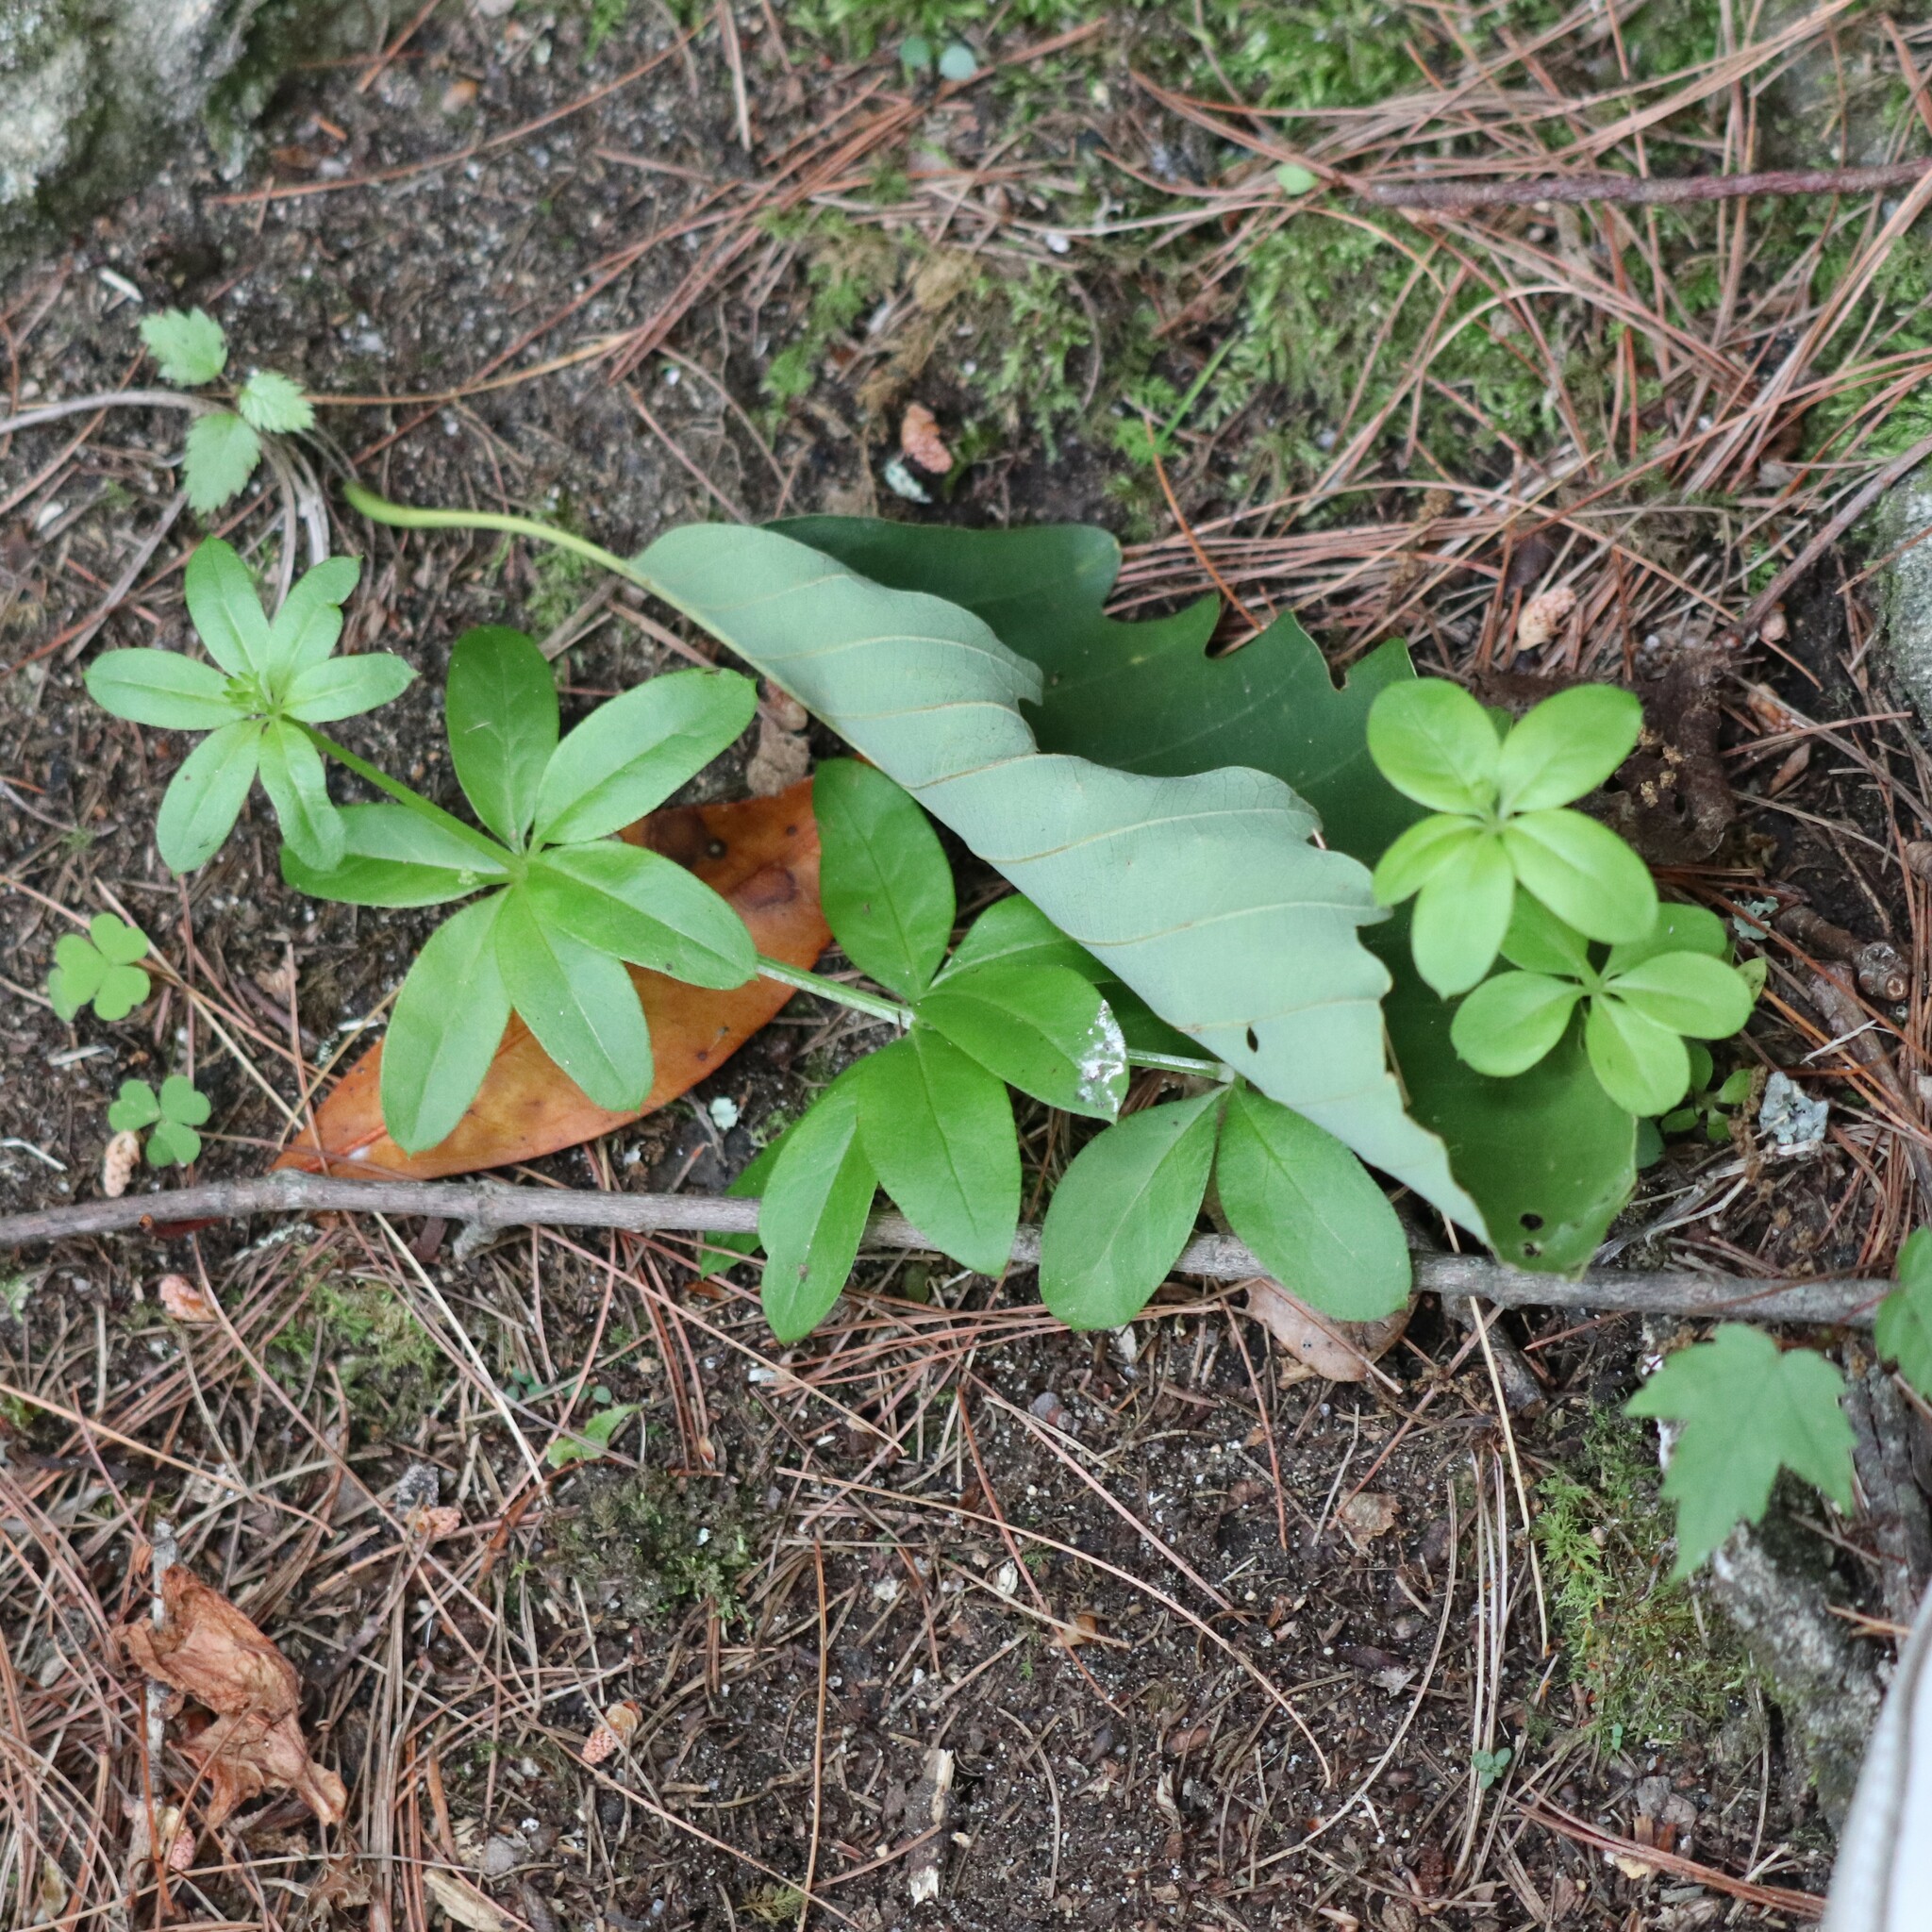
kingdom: Plantae
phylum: Tracheophyta
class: Magnoliopsida
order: Gentianales
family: Rubiaceae
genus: Galium
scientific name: Galium triflorum
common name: Fragrant bedstraw
